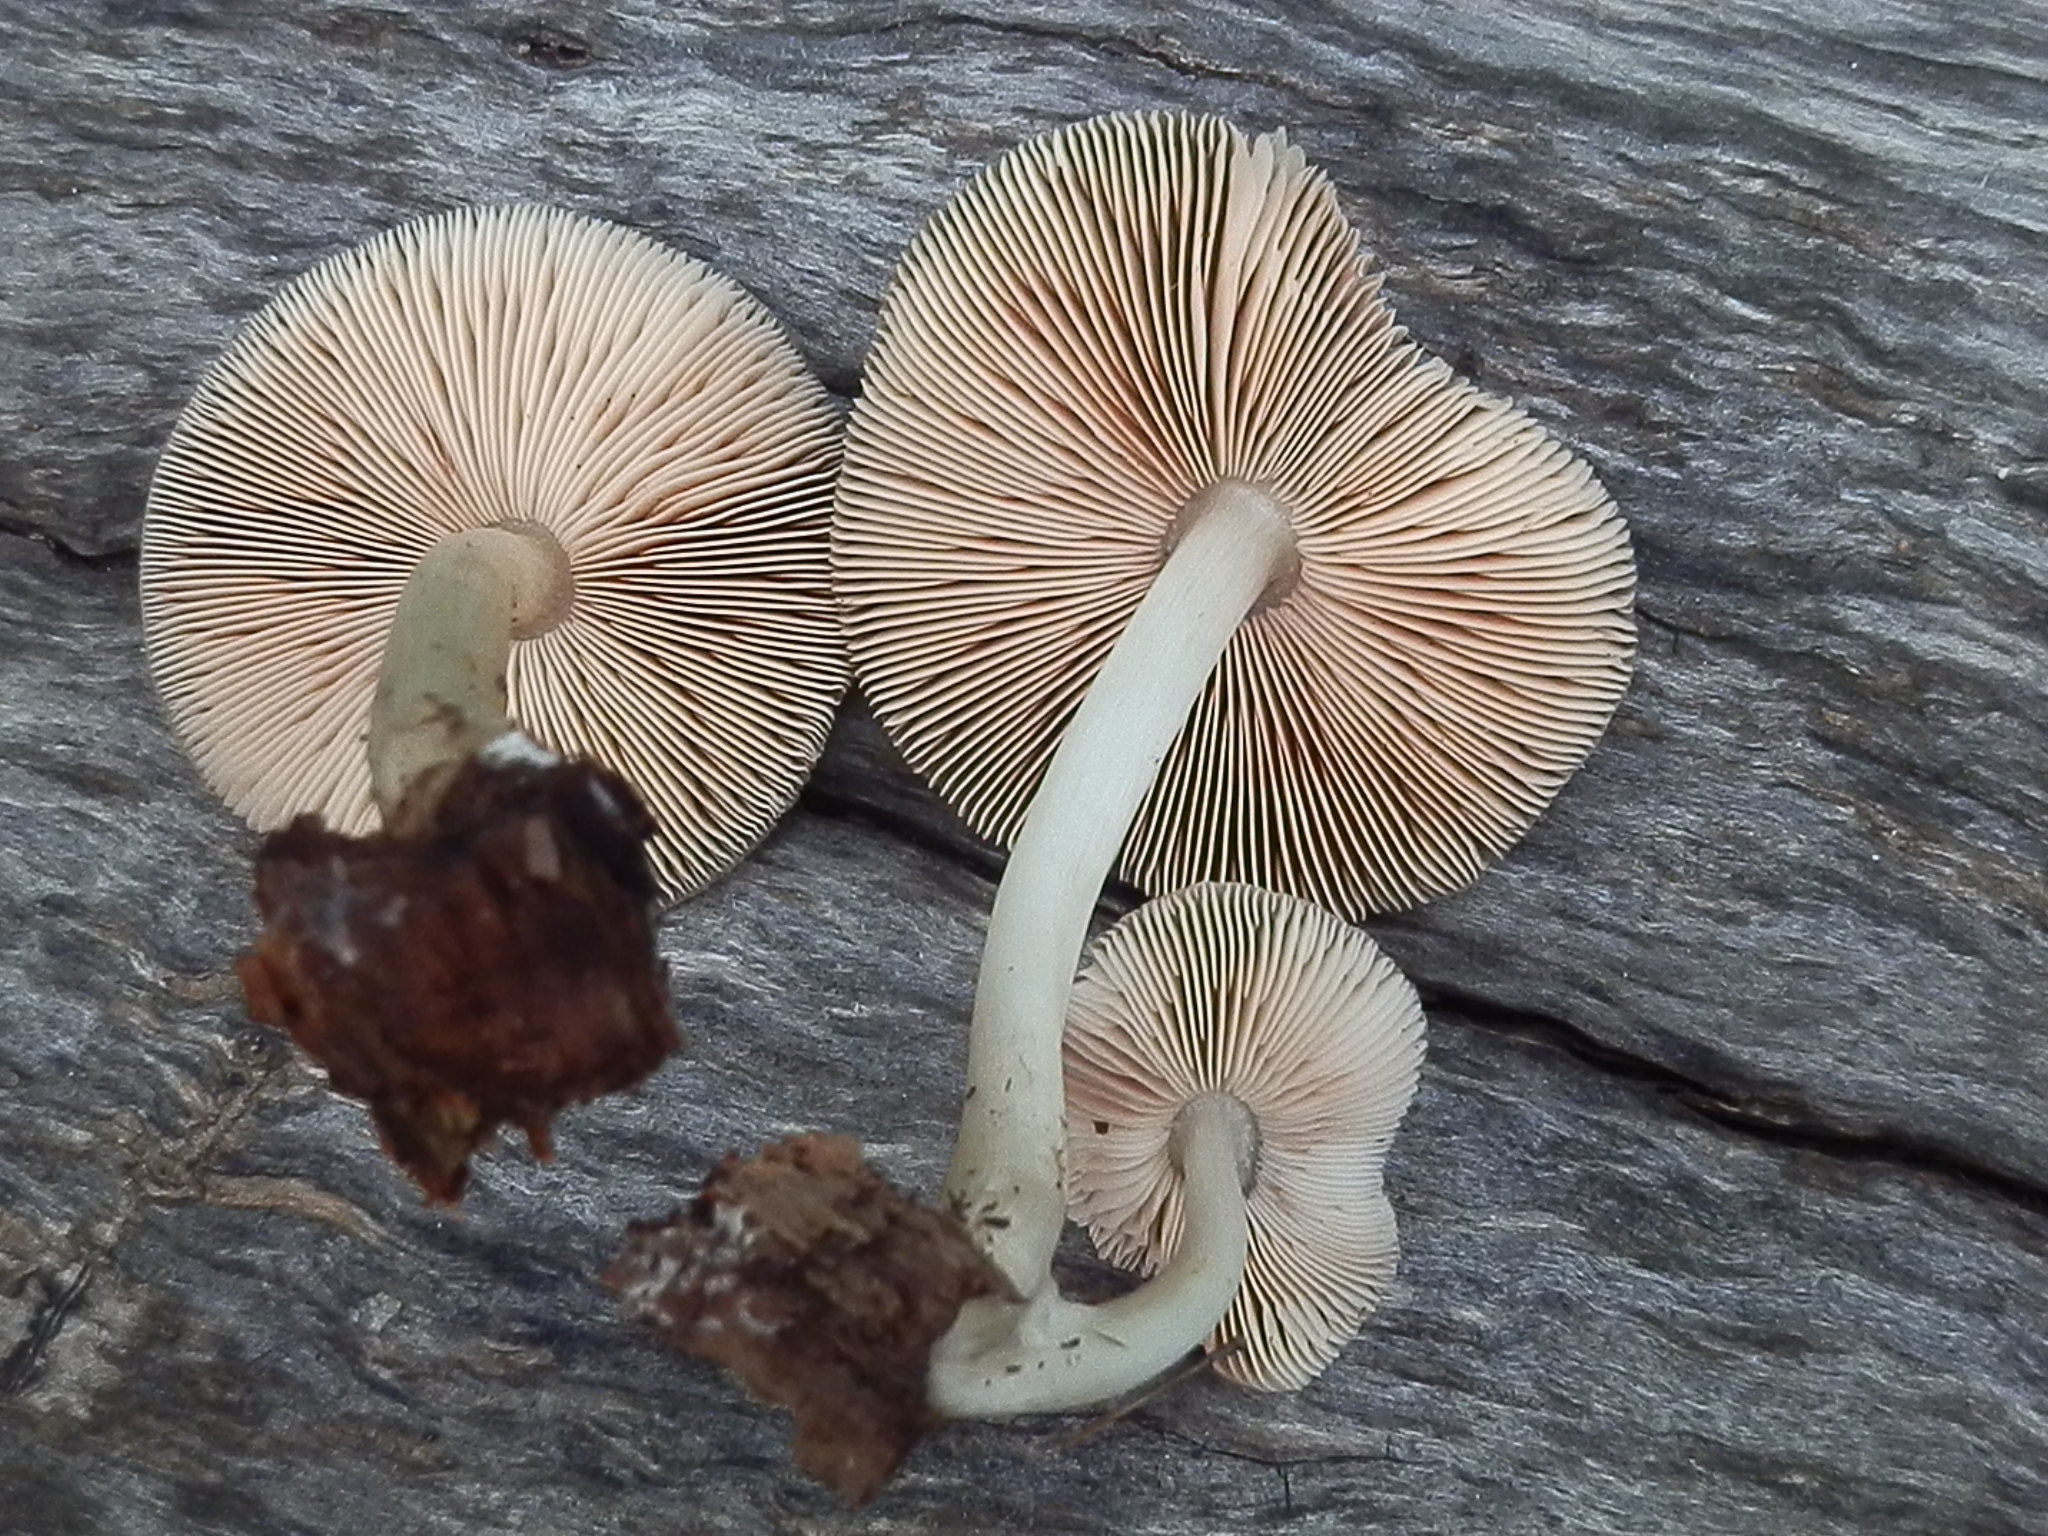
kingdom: Fungi
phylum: Basidiomycota
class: Agaricomycetes
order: Agaricales
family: Pluteaceae
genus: Pluteus
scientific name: Pluteus americanus
